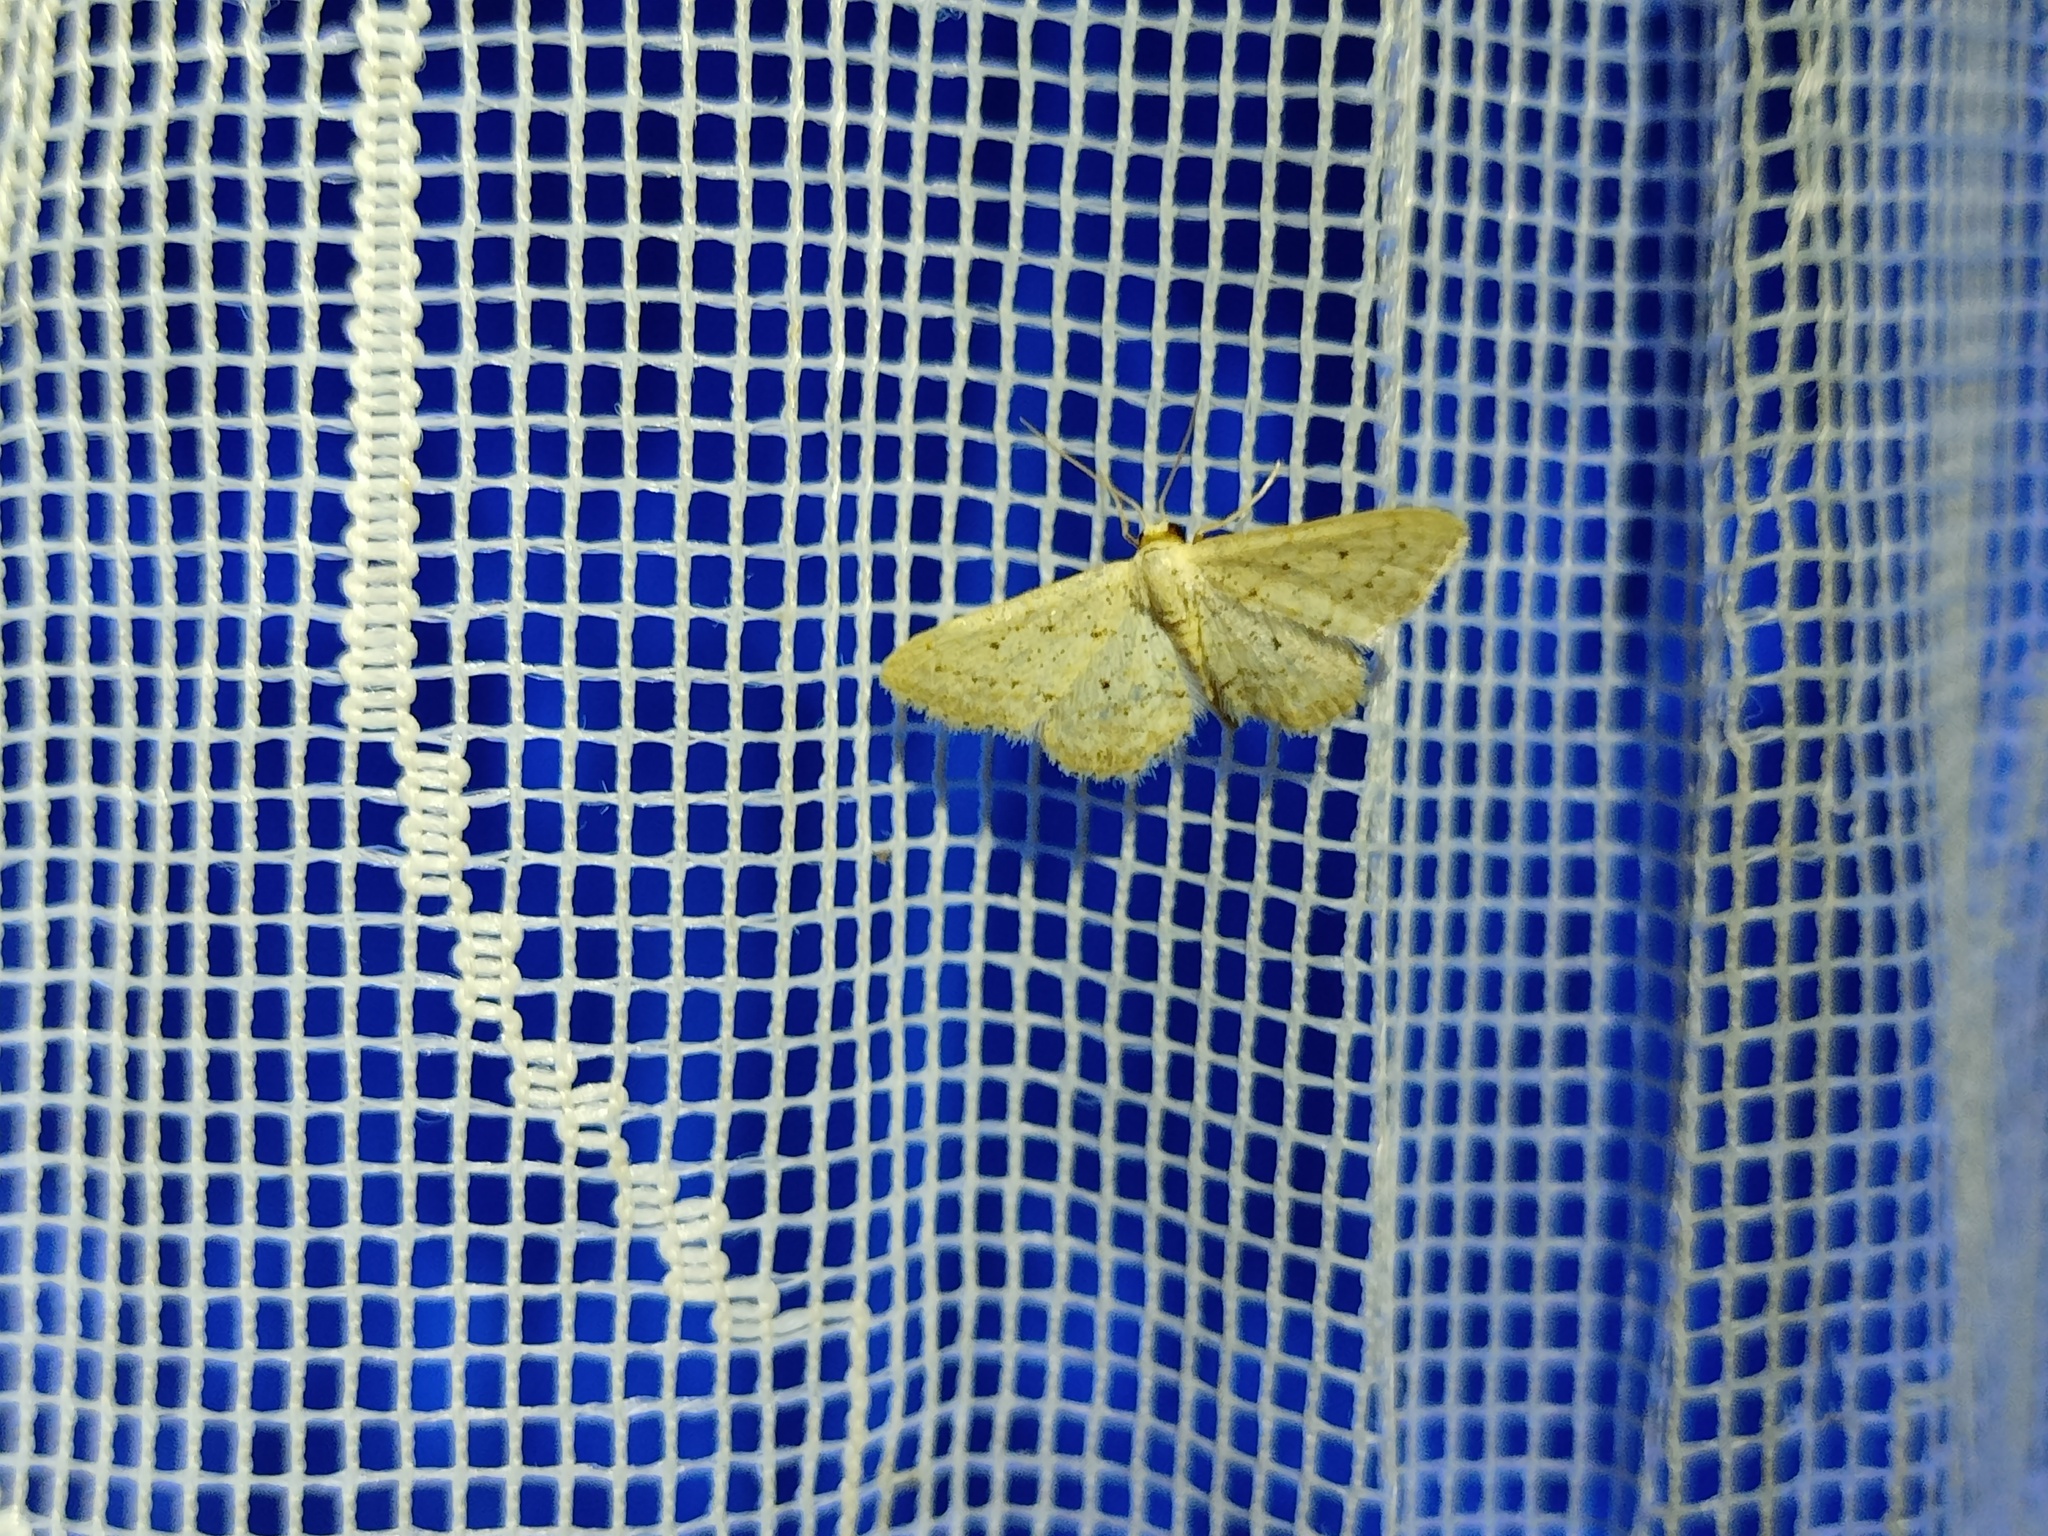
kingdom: Animalia
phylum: Arthropoda
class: Insecta
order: Lepidoptera
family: Geometridae
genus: Idaea
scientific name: Idaea elongaria
